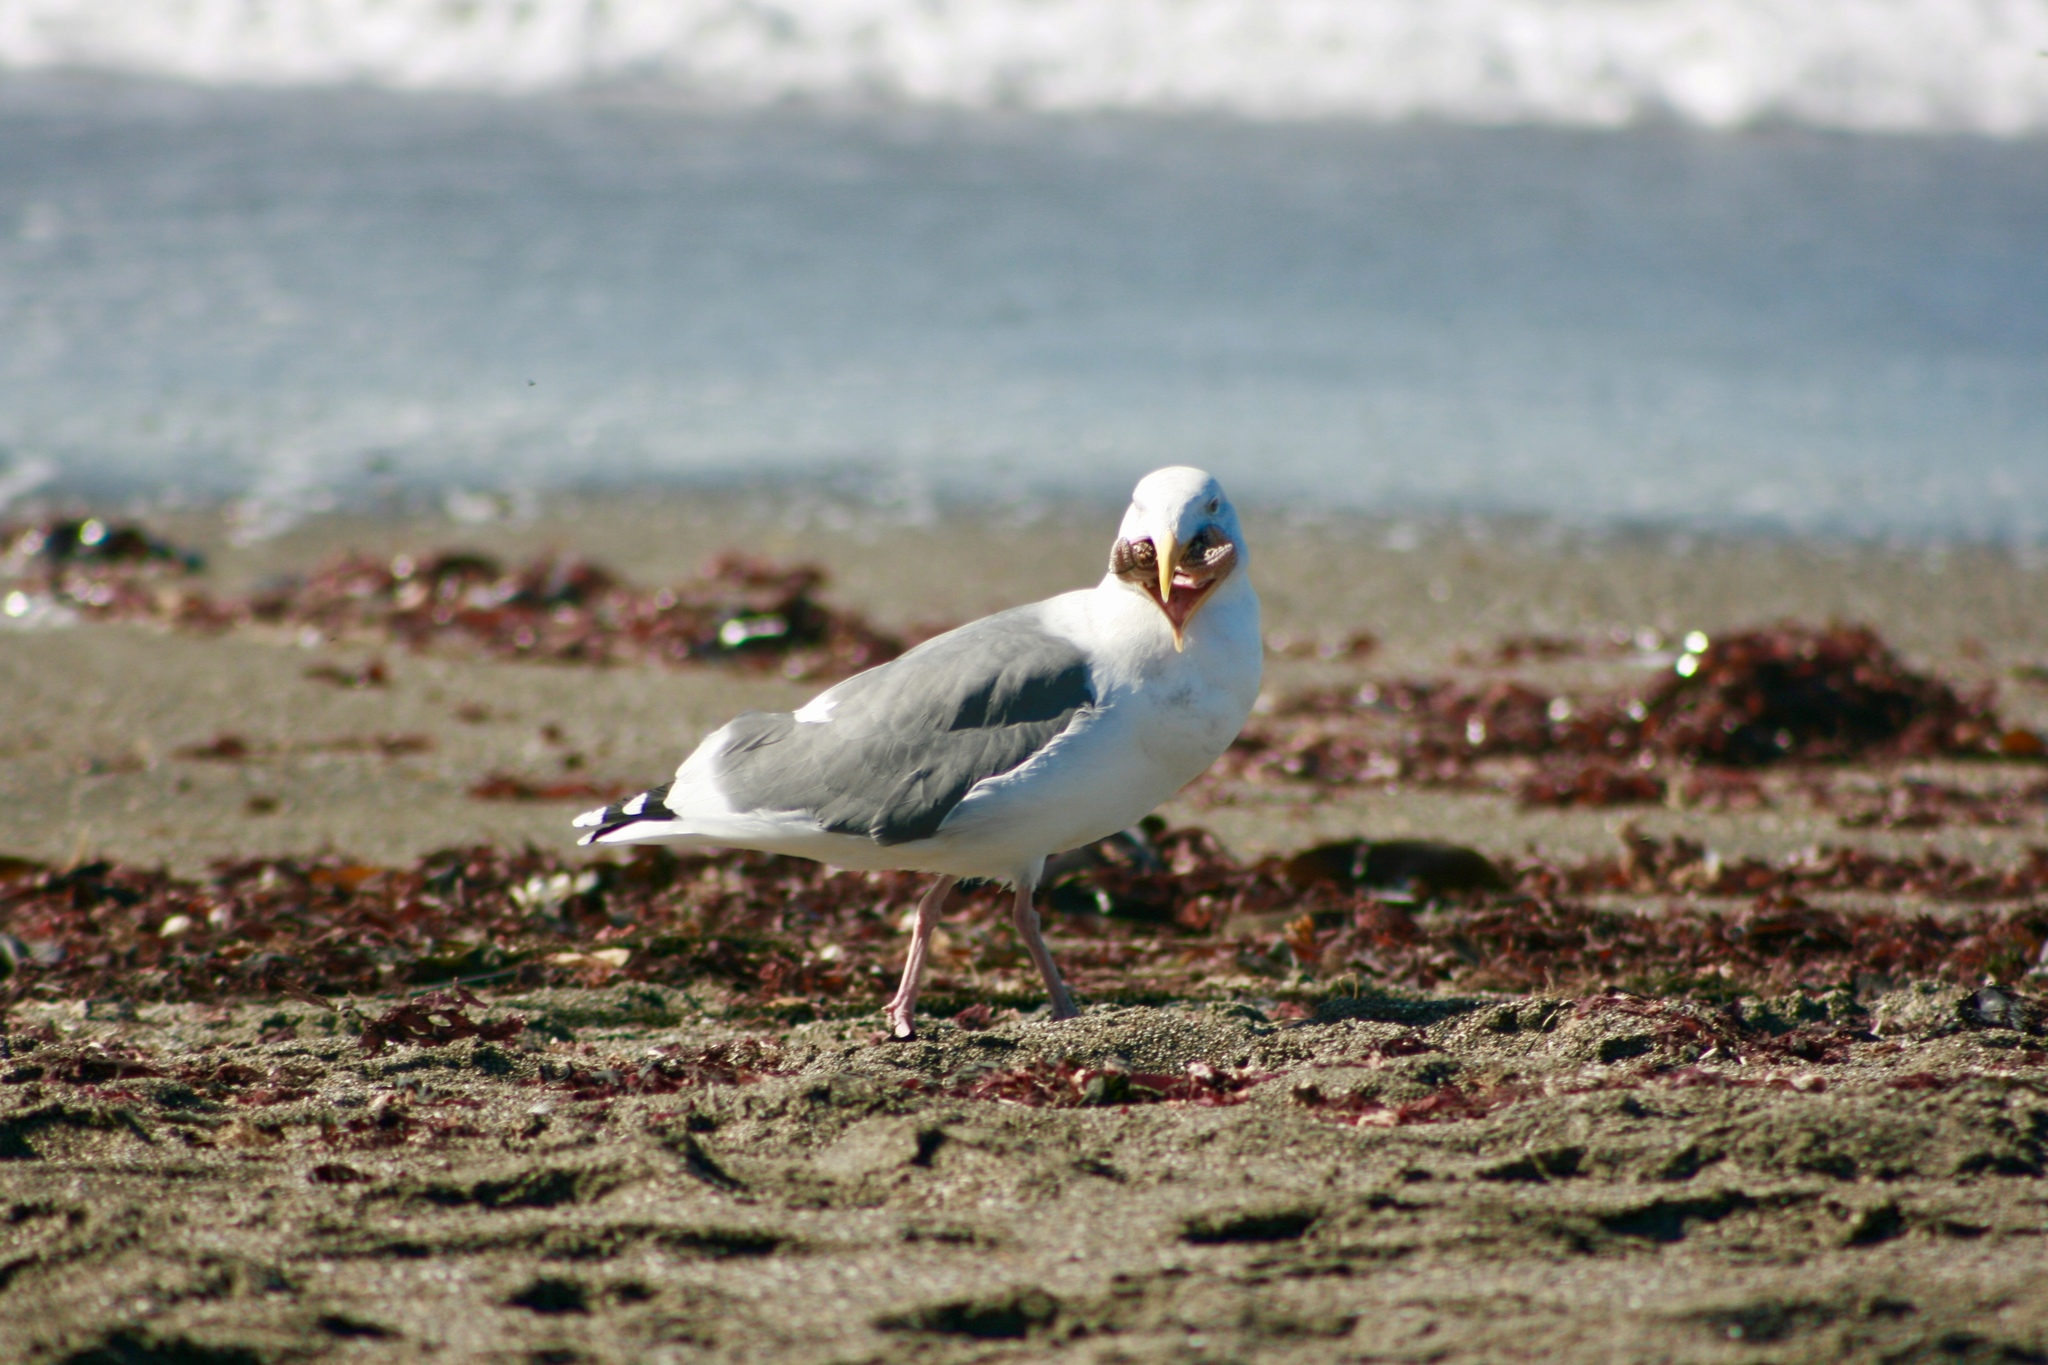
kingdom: Animalia
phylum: Chordata
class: Aves
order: Charadriiformes
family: Laridae
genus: Larus
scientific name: Larus occidentalis
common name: Western gull
